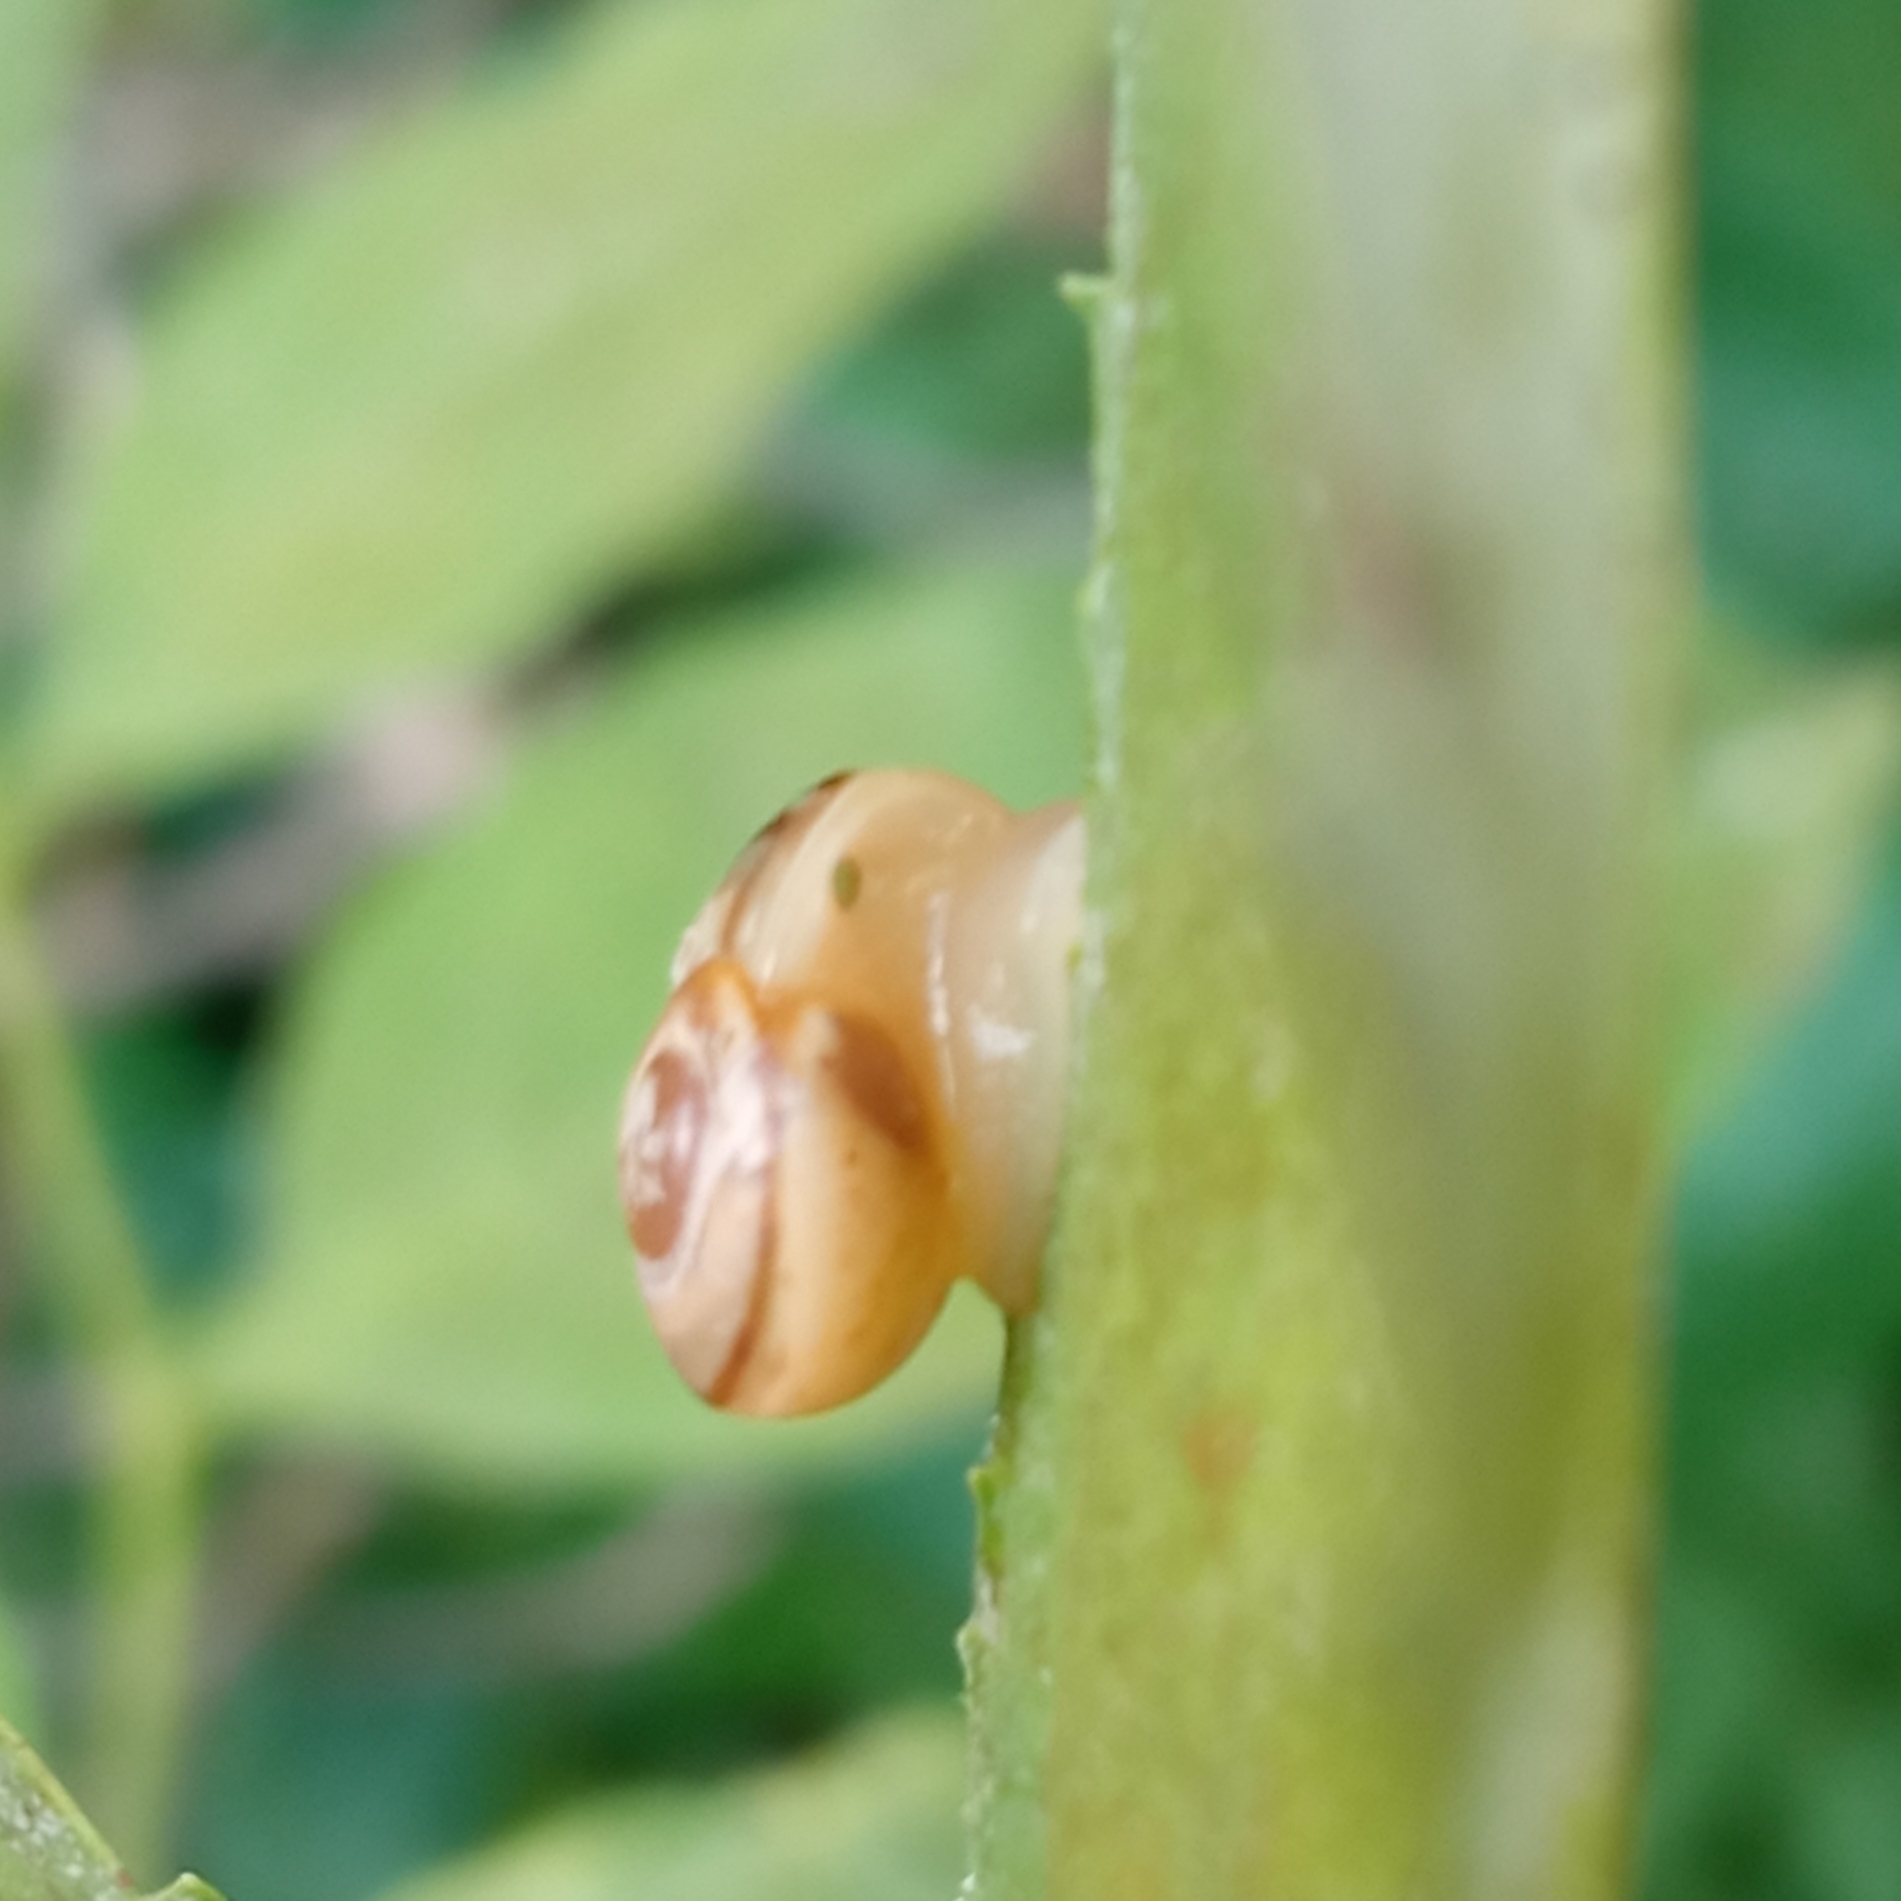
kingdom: Animalia
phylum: Mollusca
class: Gastropoda
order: Stylommatophora
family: Helicidae
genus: Cepaea
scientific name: Cepaea
